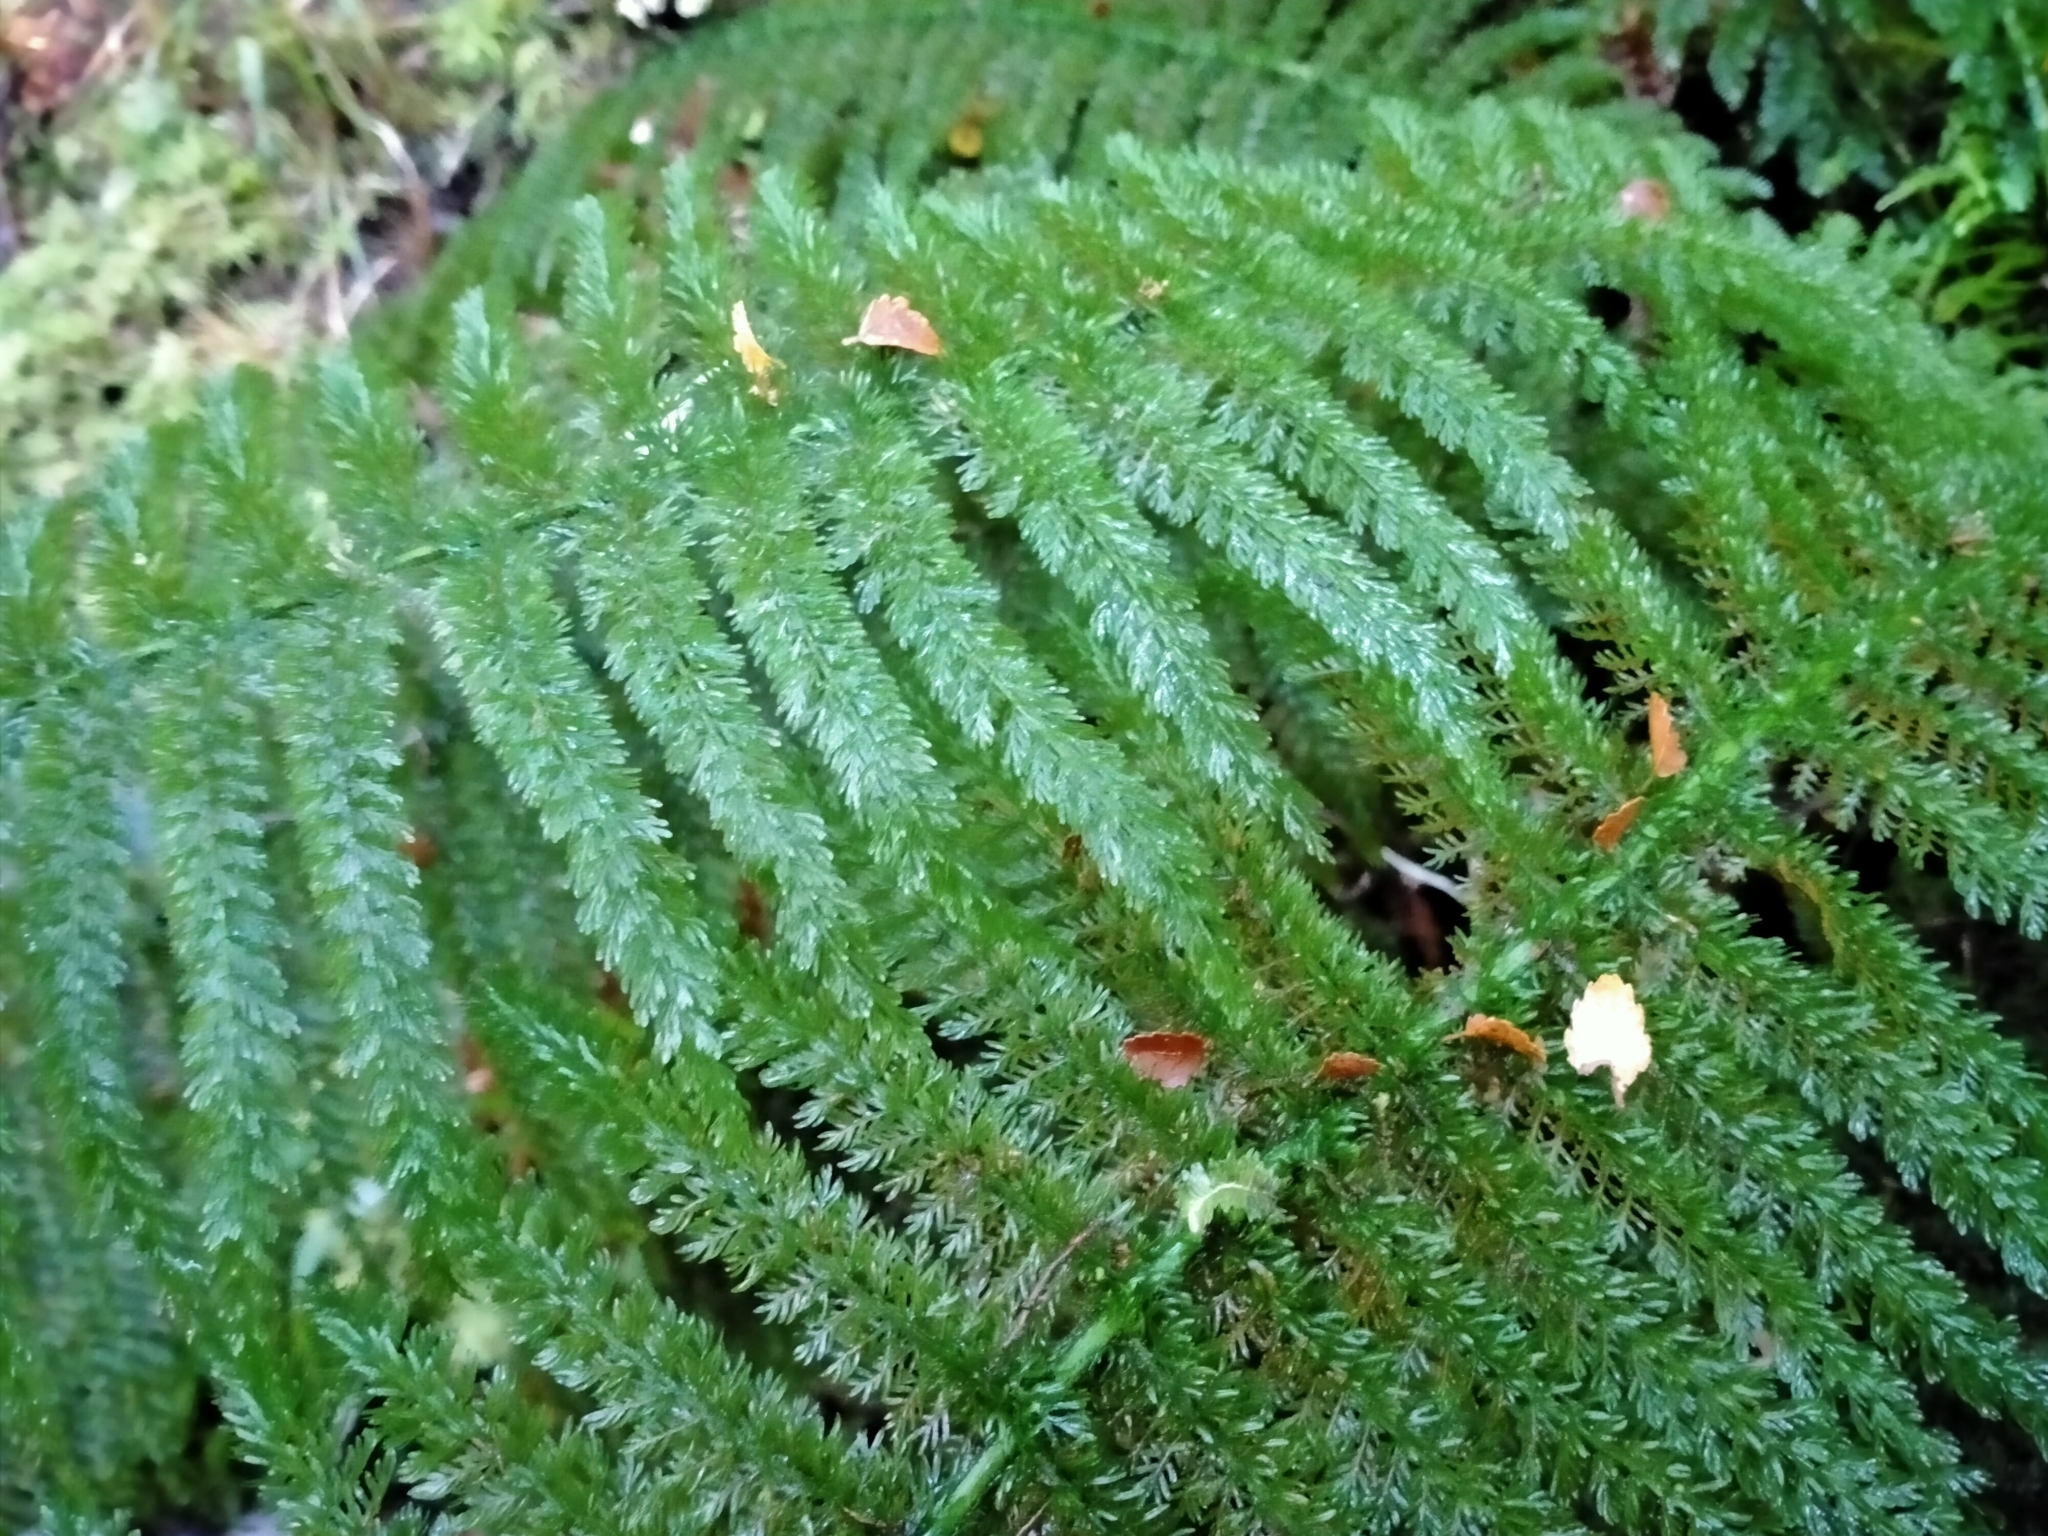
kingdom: Plantae
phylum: Tracheophyta
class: Polypodiopsida
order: Osmundales
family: Osmundaceae
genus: Leptopteris
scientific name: Leptopteris superba
